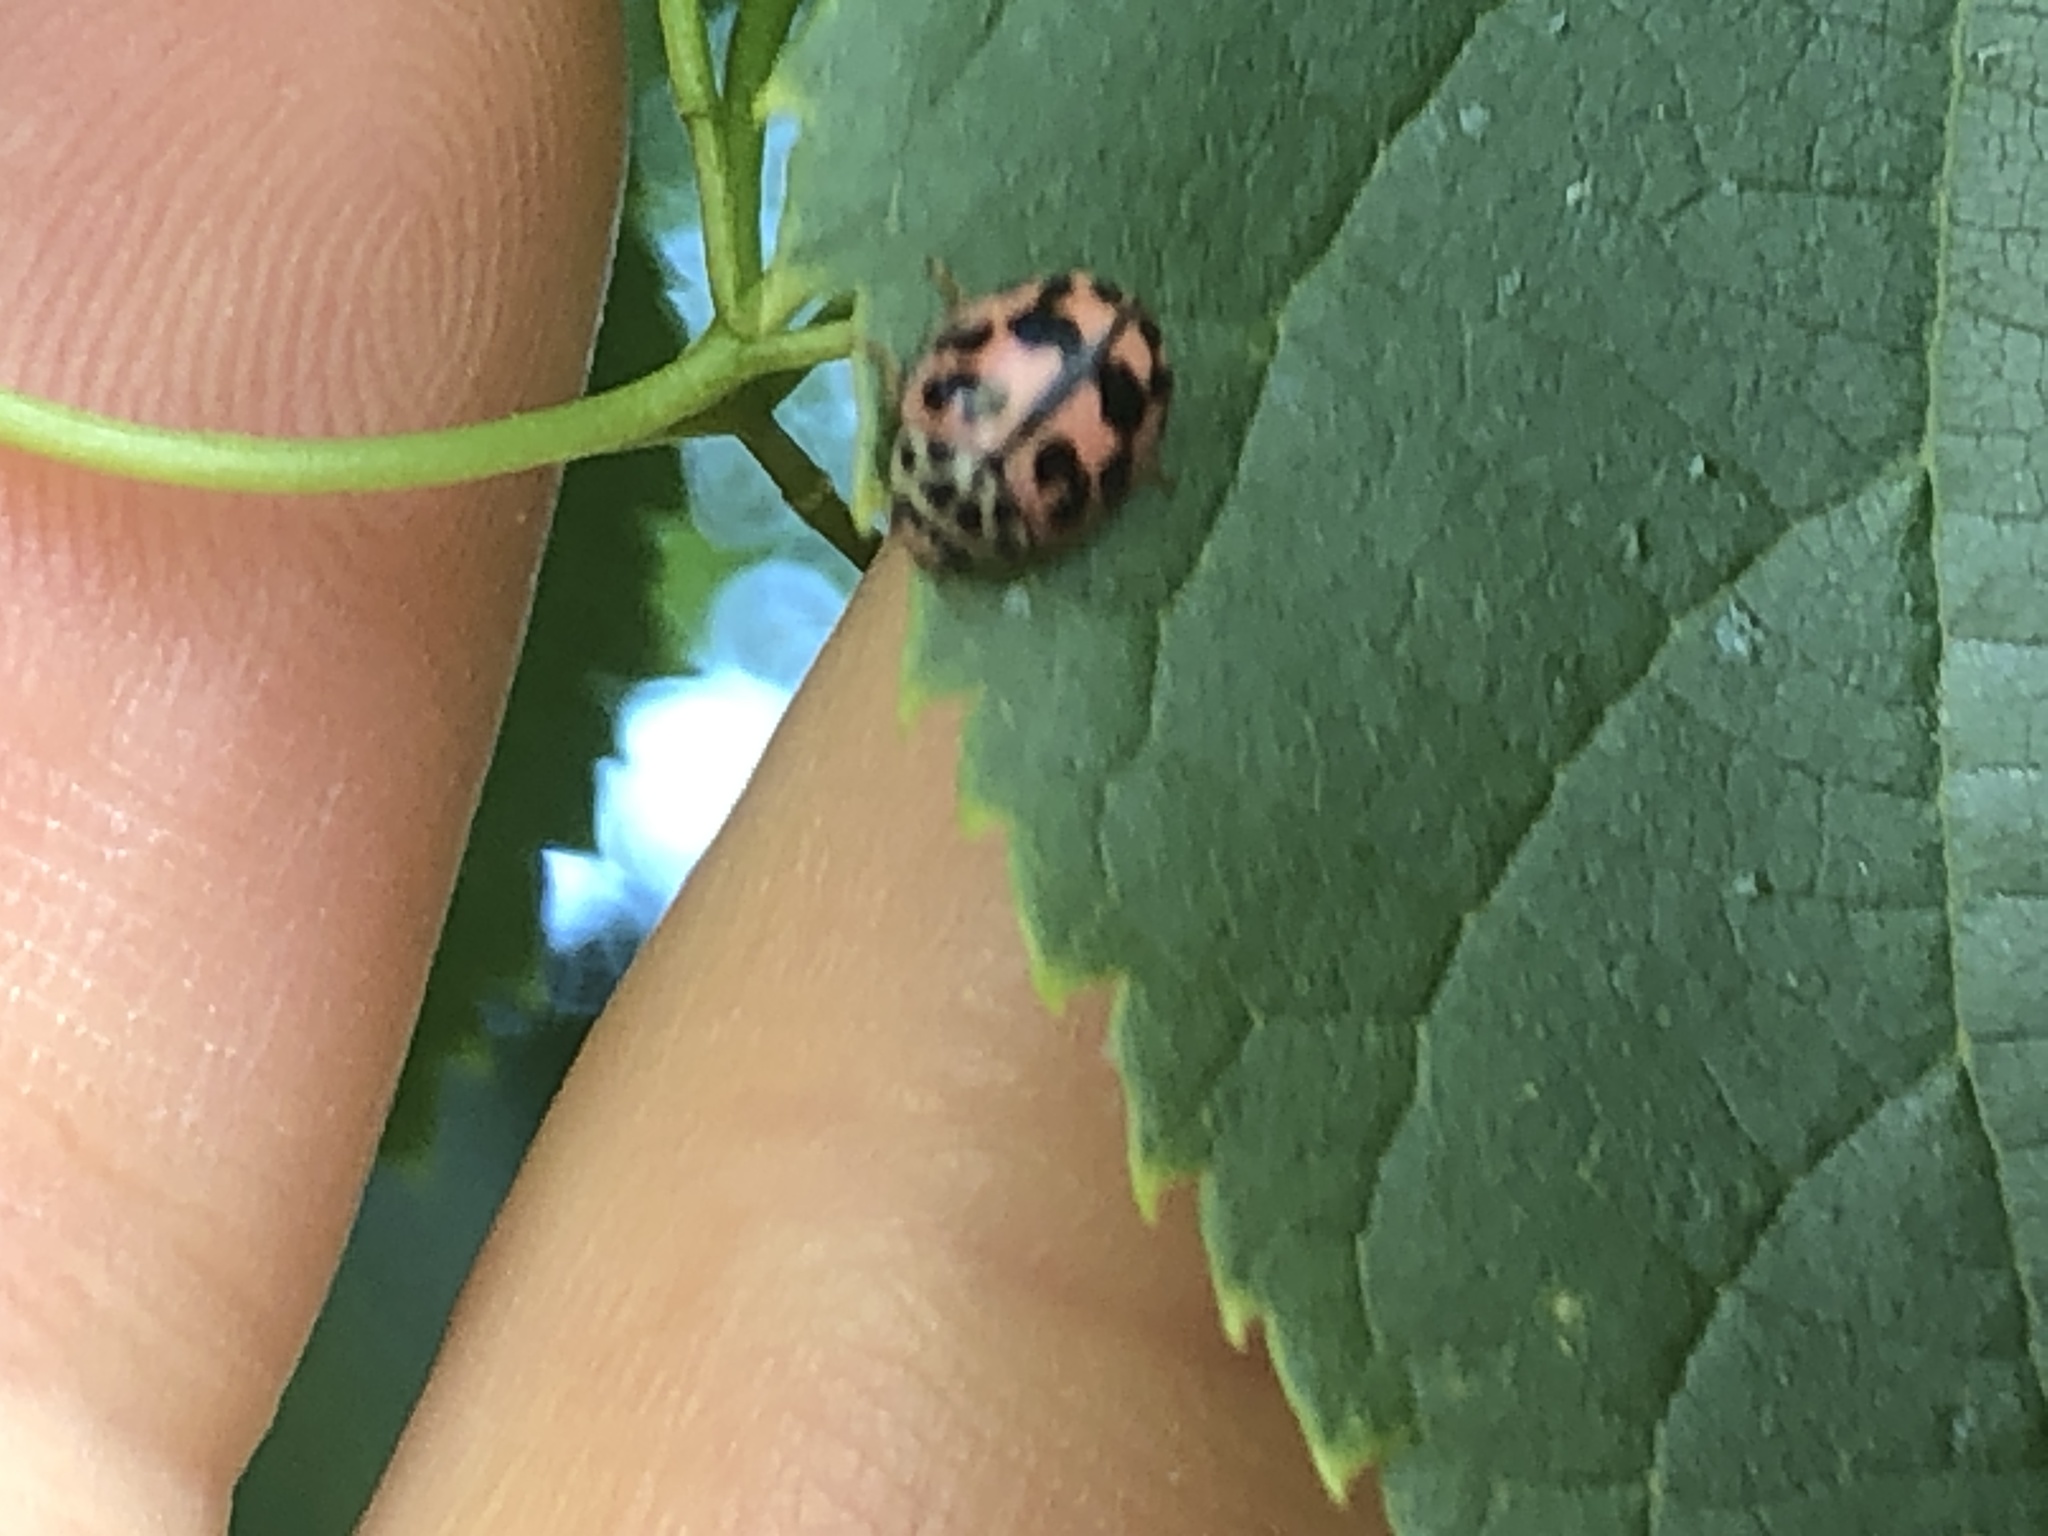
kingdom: Animalia
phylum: Arthropoda
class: Insecta
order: Coleoptera
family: Coccinellidae
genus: Oenopia
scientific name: Oenopia conglobata
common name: Ladybird beetle
